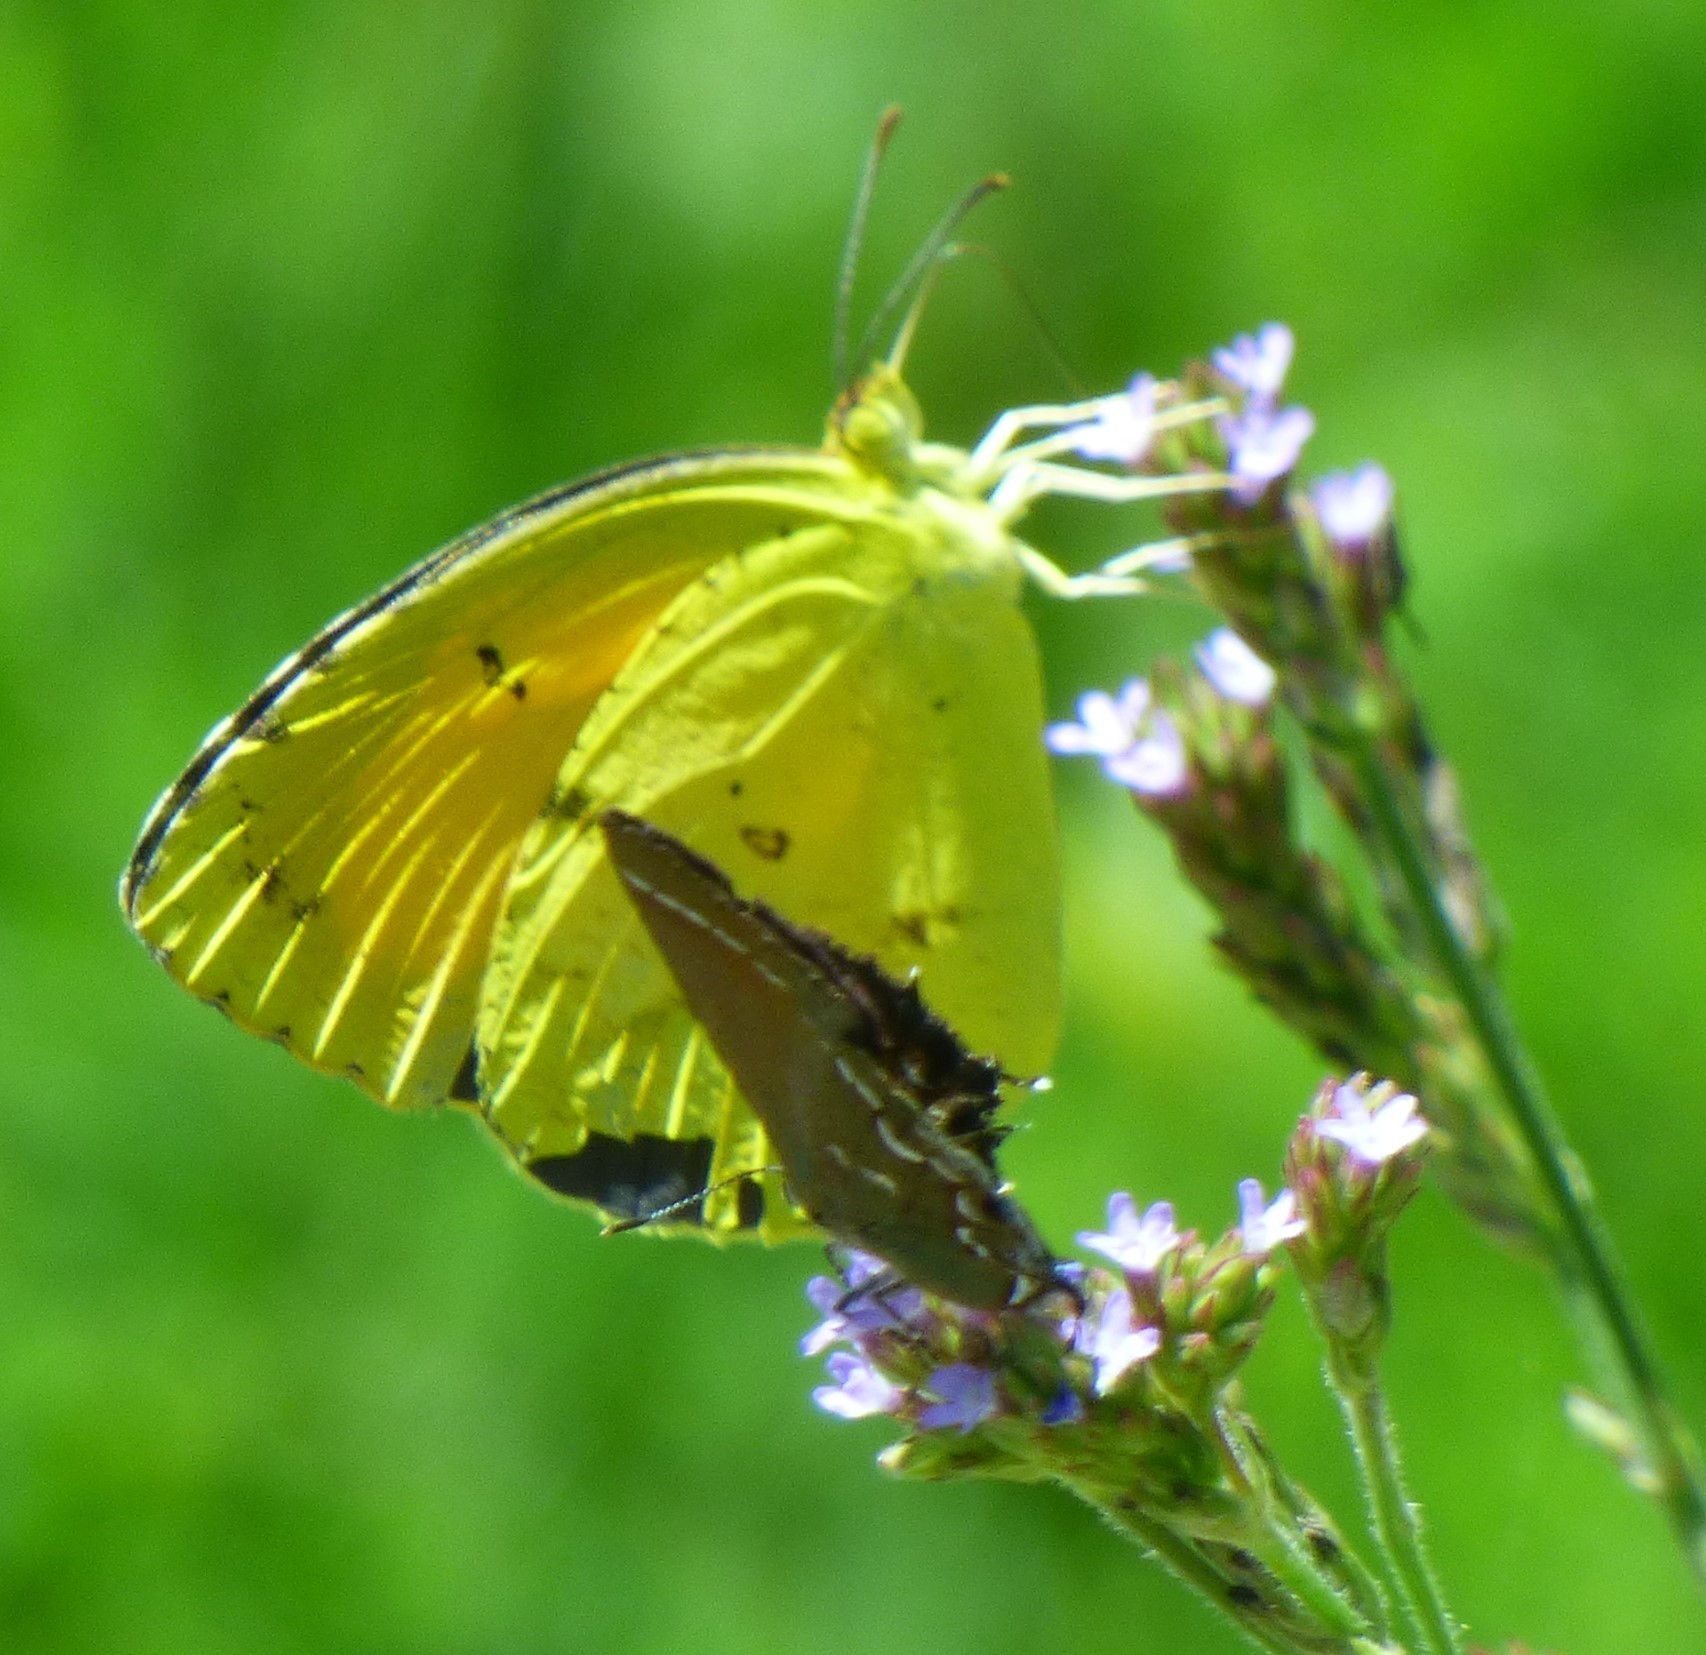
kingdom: Animalia
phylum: Arthropoda
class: Insecta
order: Lepidoptera
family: Pieridae
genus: Abaeis
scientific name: Abaeis nicippe
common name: Sleepy orange
